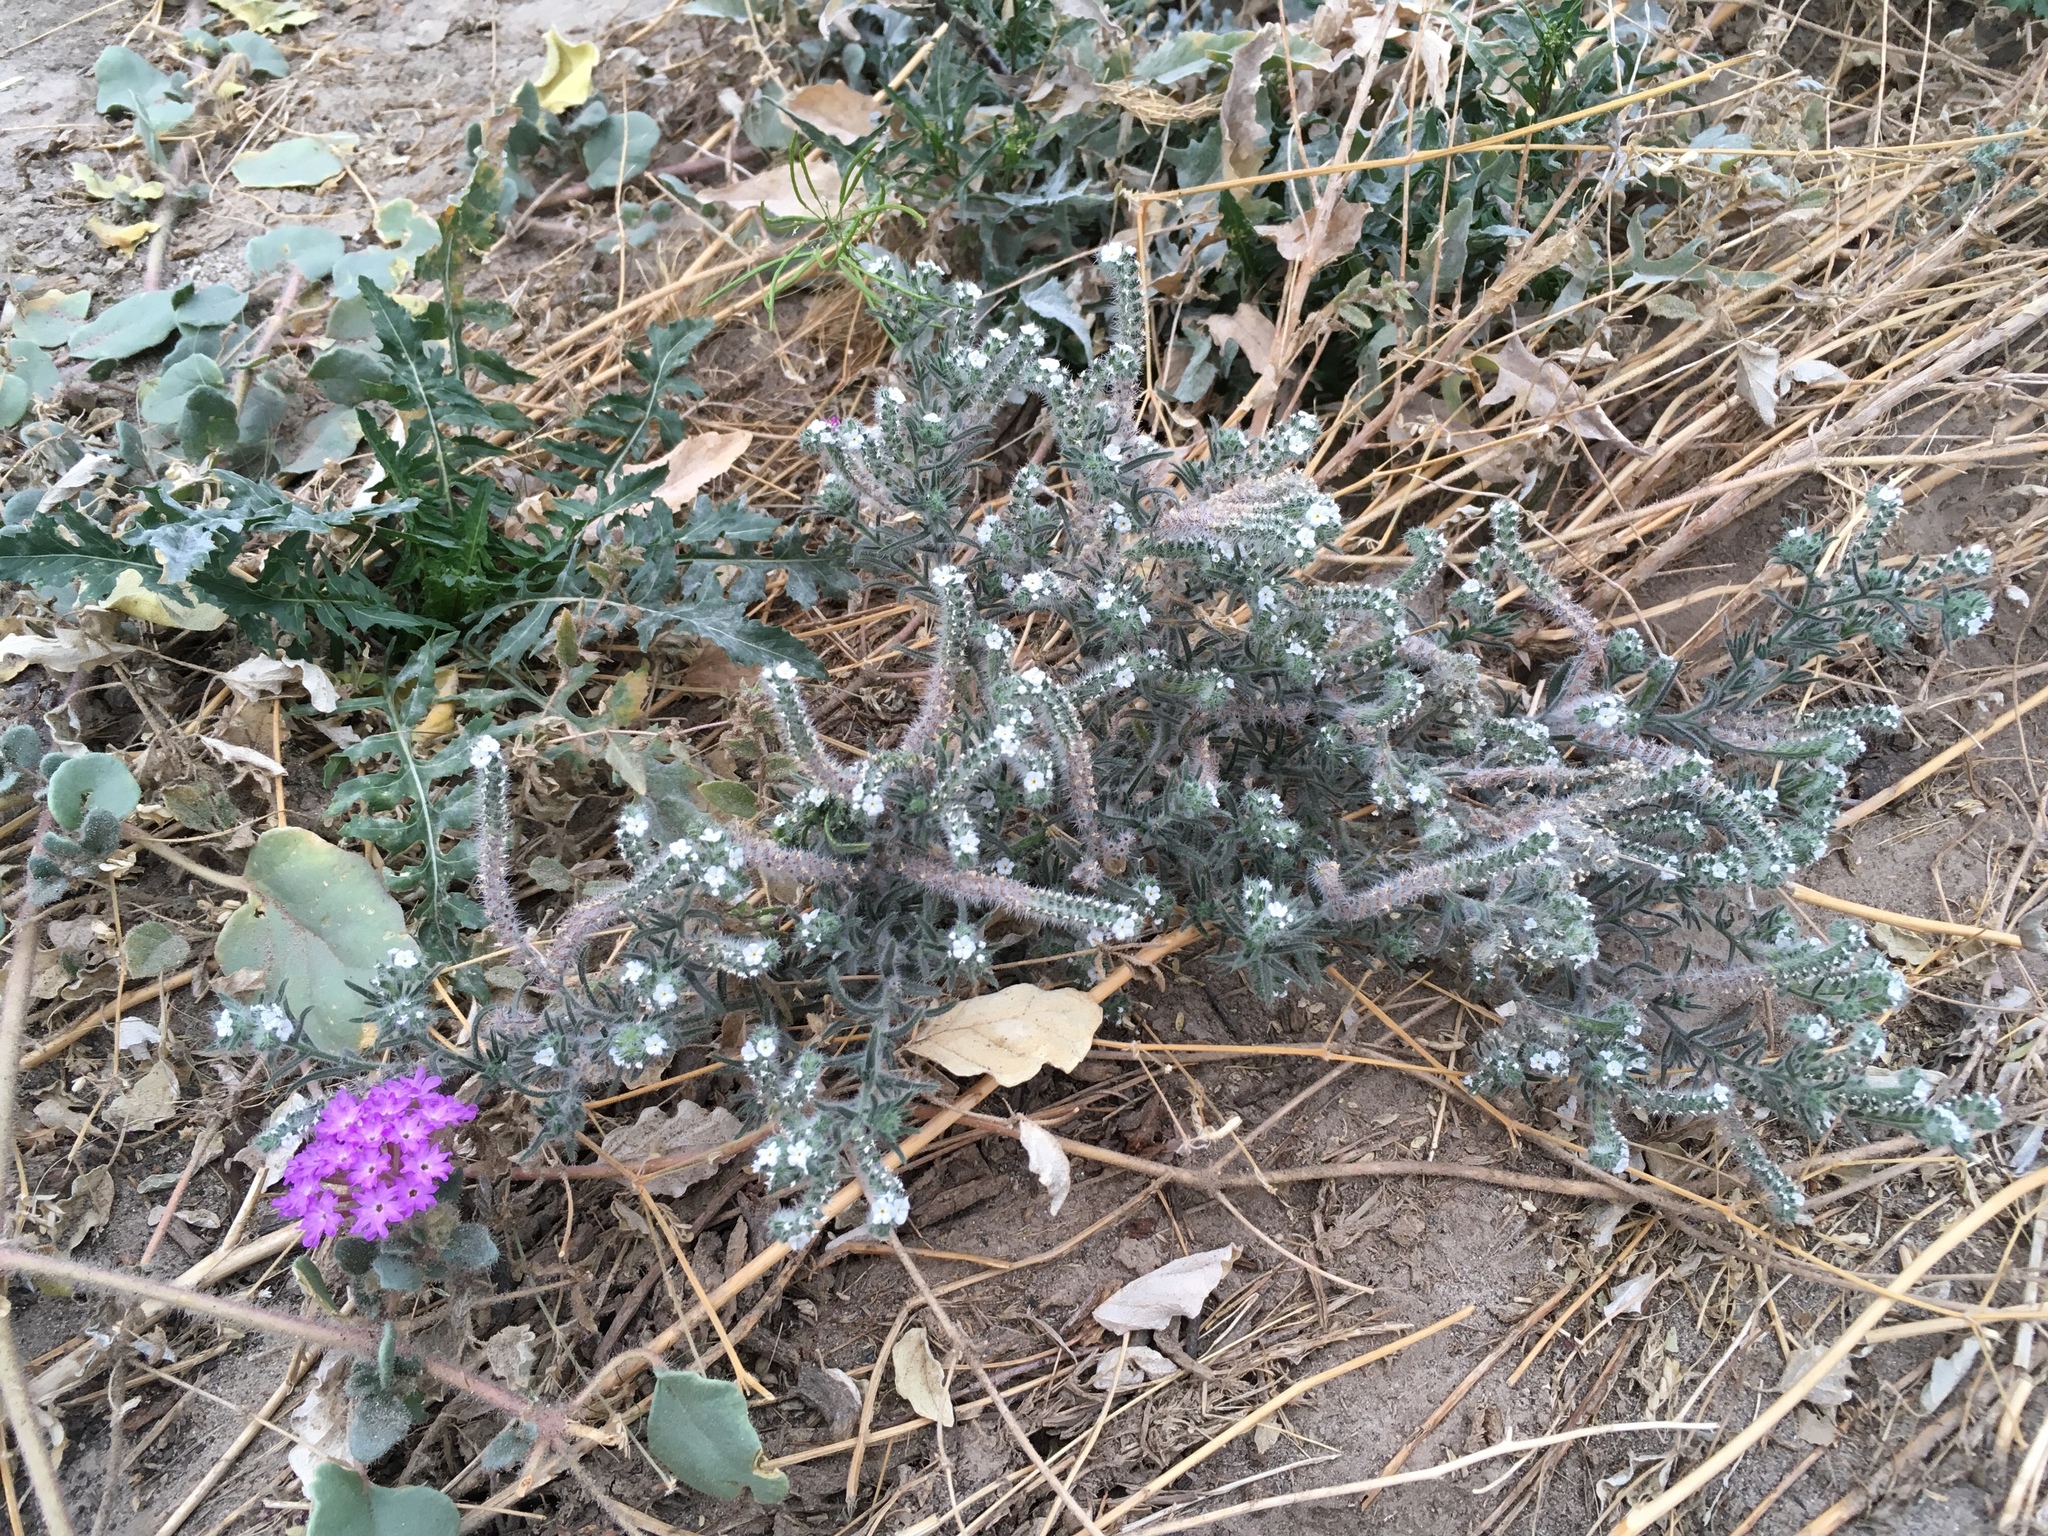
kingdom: Plantae
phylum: Tracheophyta
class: Magnoliopsida
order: Boraginales
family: Boraginaceae
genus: Johnstonella
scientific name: Johnstonella angustifolia
